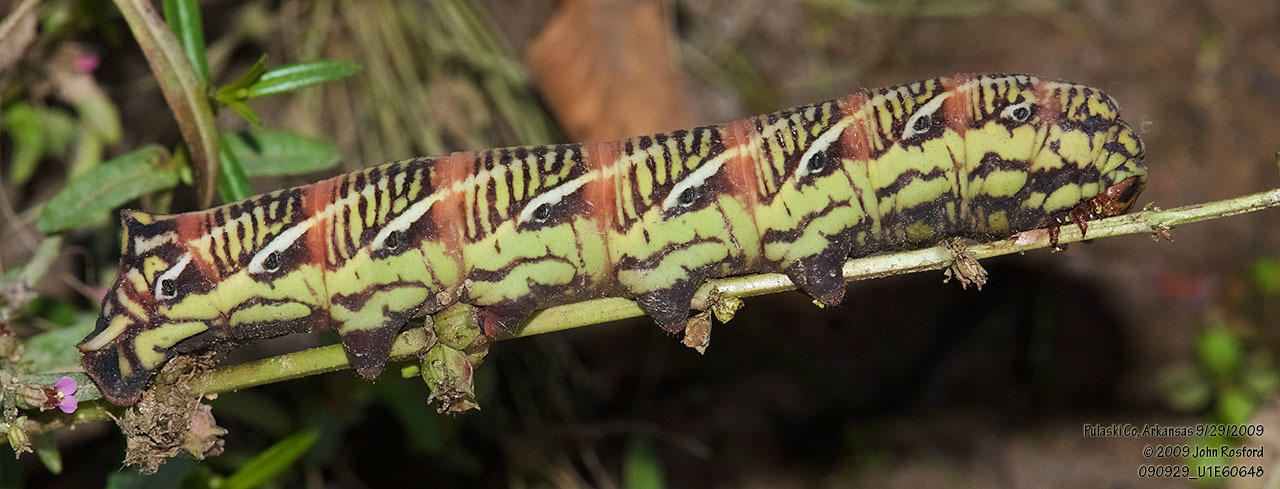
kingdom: Animalia
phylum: Arthropoda
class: Insecta
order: Lepidoptera
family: Sphingidae
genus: Eumorpha
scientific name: Eumorpha fasciatus
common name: Banded sphinx
